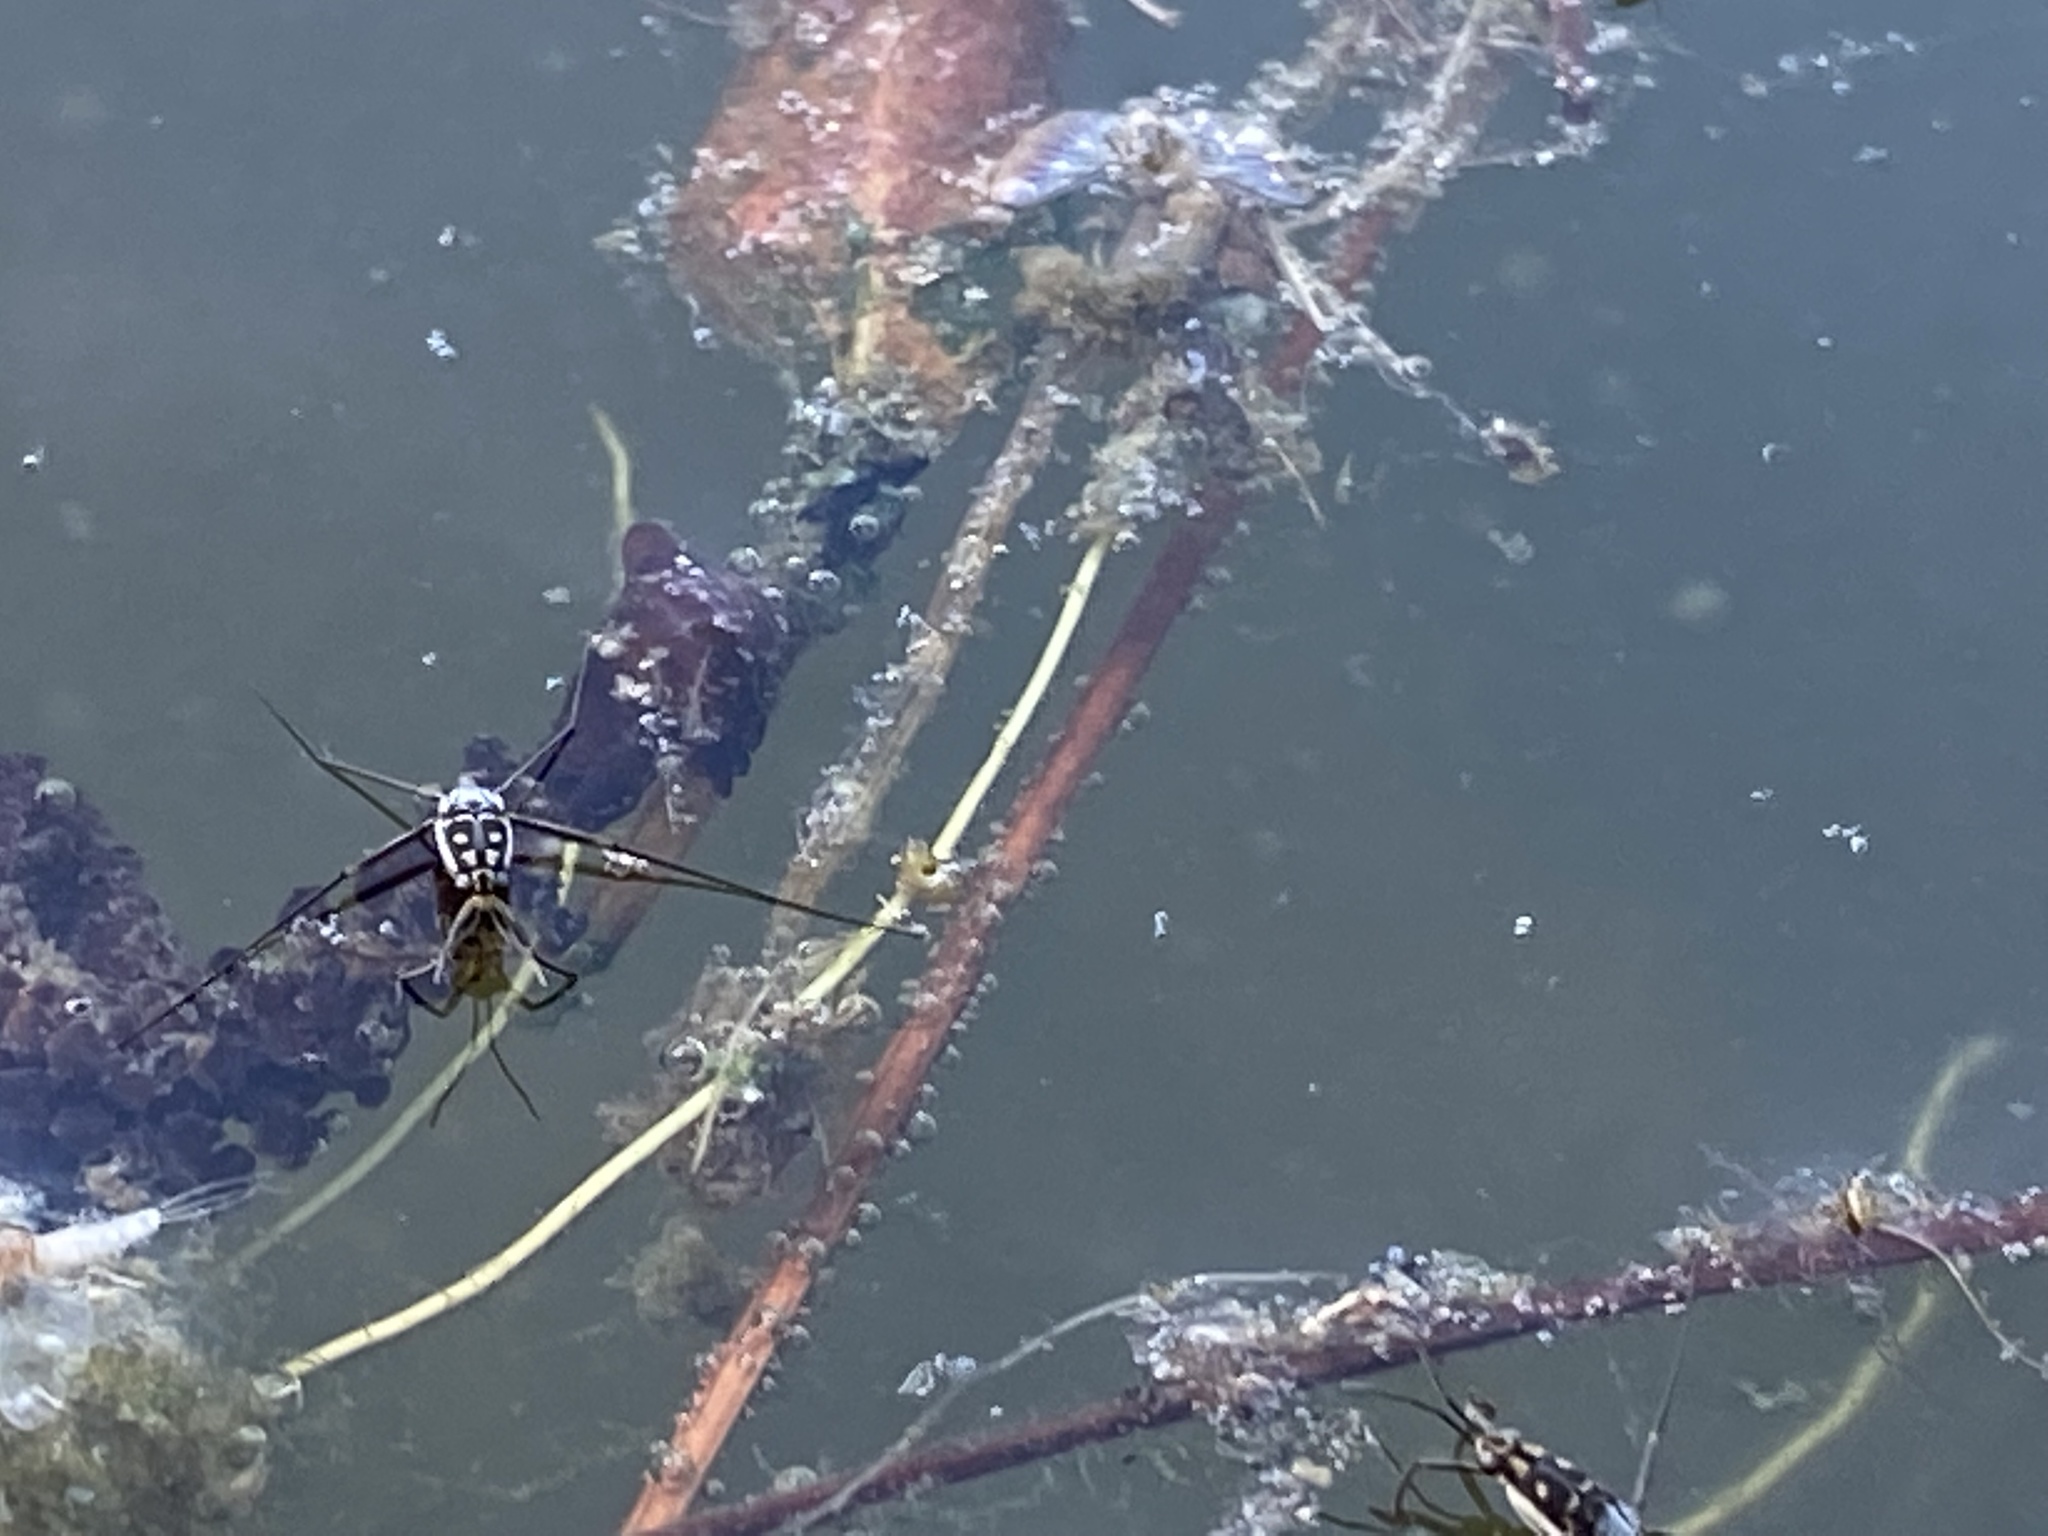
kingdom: Animalia
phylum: Arthropoda
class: Insecta
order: Hemiptera
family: Gerridae
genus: Trepobates
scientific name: Trepobates subnitidus
